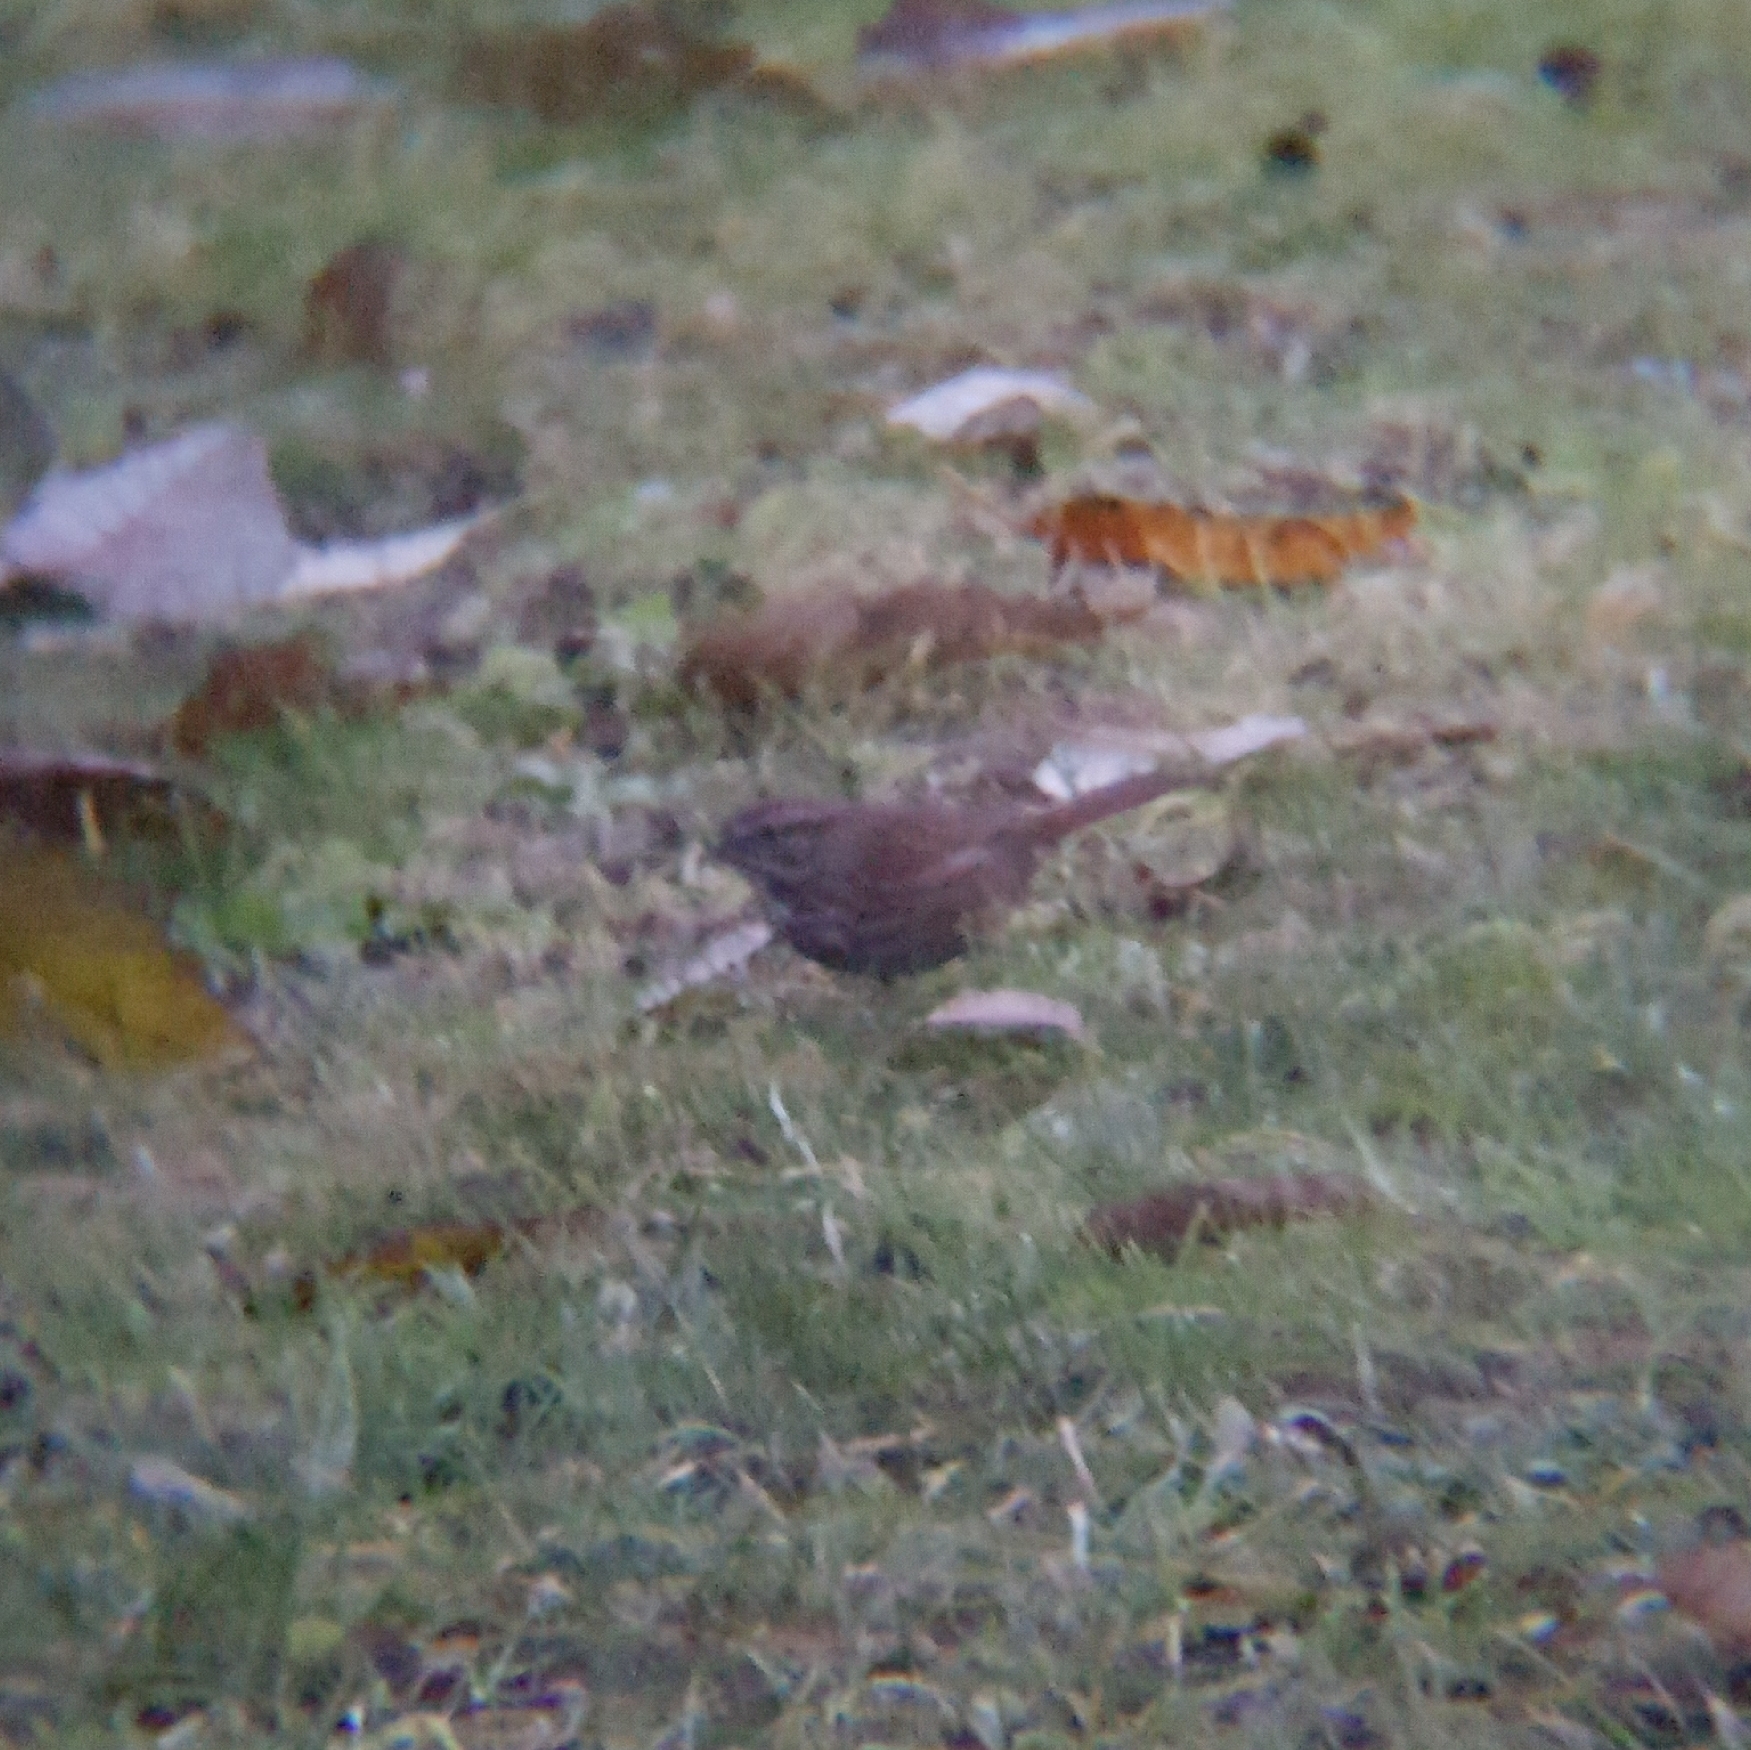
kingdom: Animalia
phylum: Chordata
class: Aves
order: Passeriformes
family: Passerellidae
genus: Melospiza
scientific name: Melospiza melodia
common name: Song sparrow
